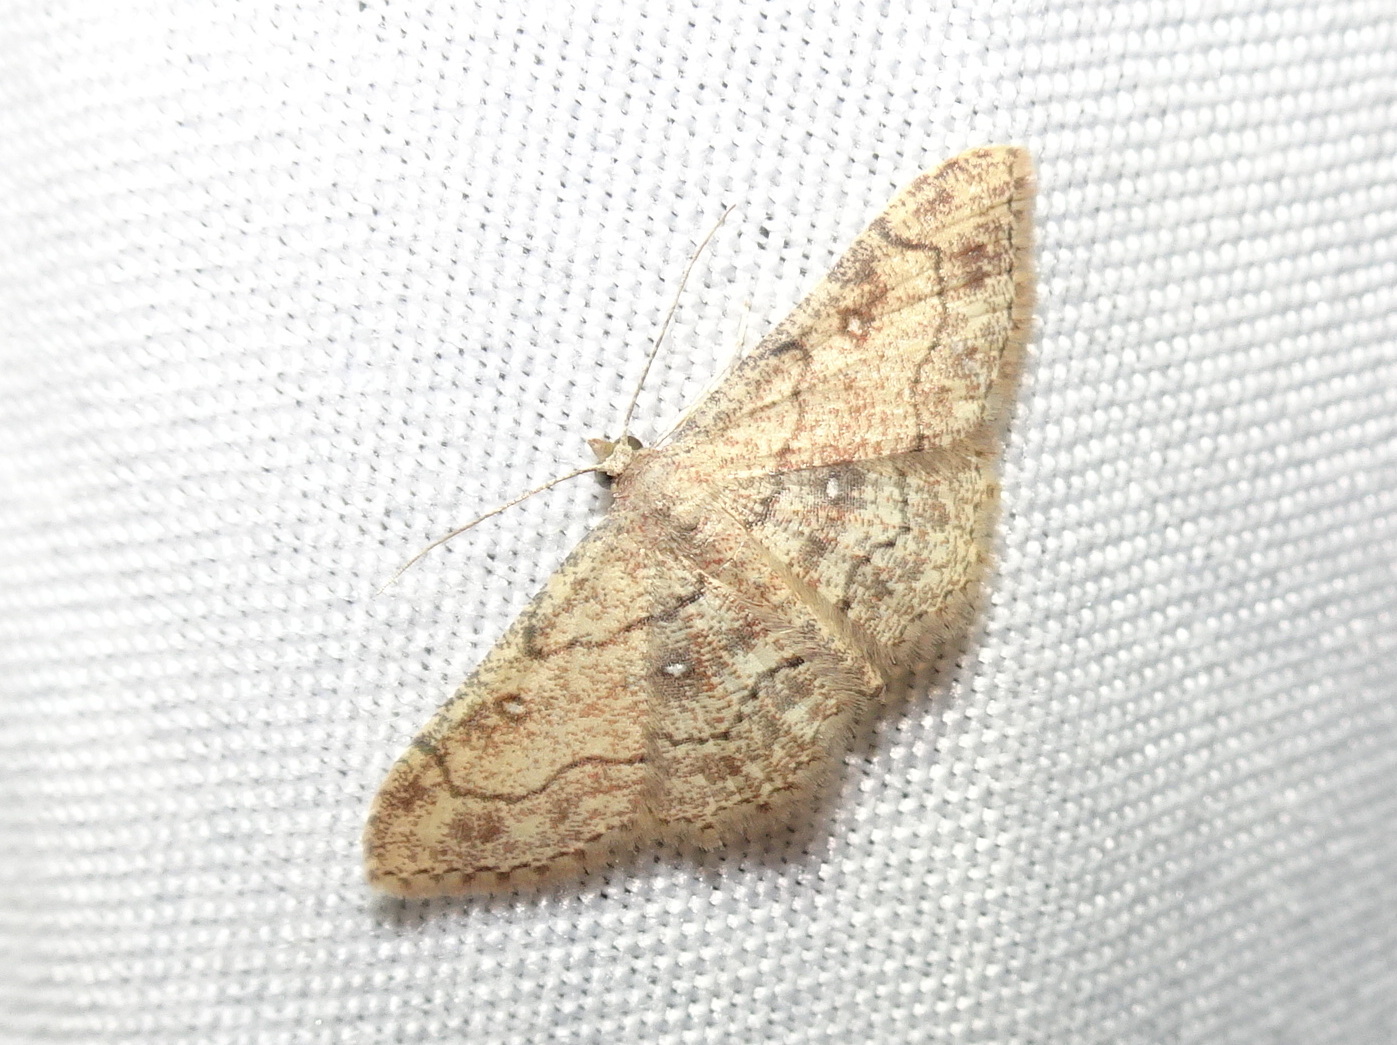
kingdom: Animalia
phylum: Arthropoda
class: Insecta
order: Lepidoptera
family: Geometridae
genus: Cyclophora
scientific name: Cyclophora nanaria
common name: Cankerworm
